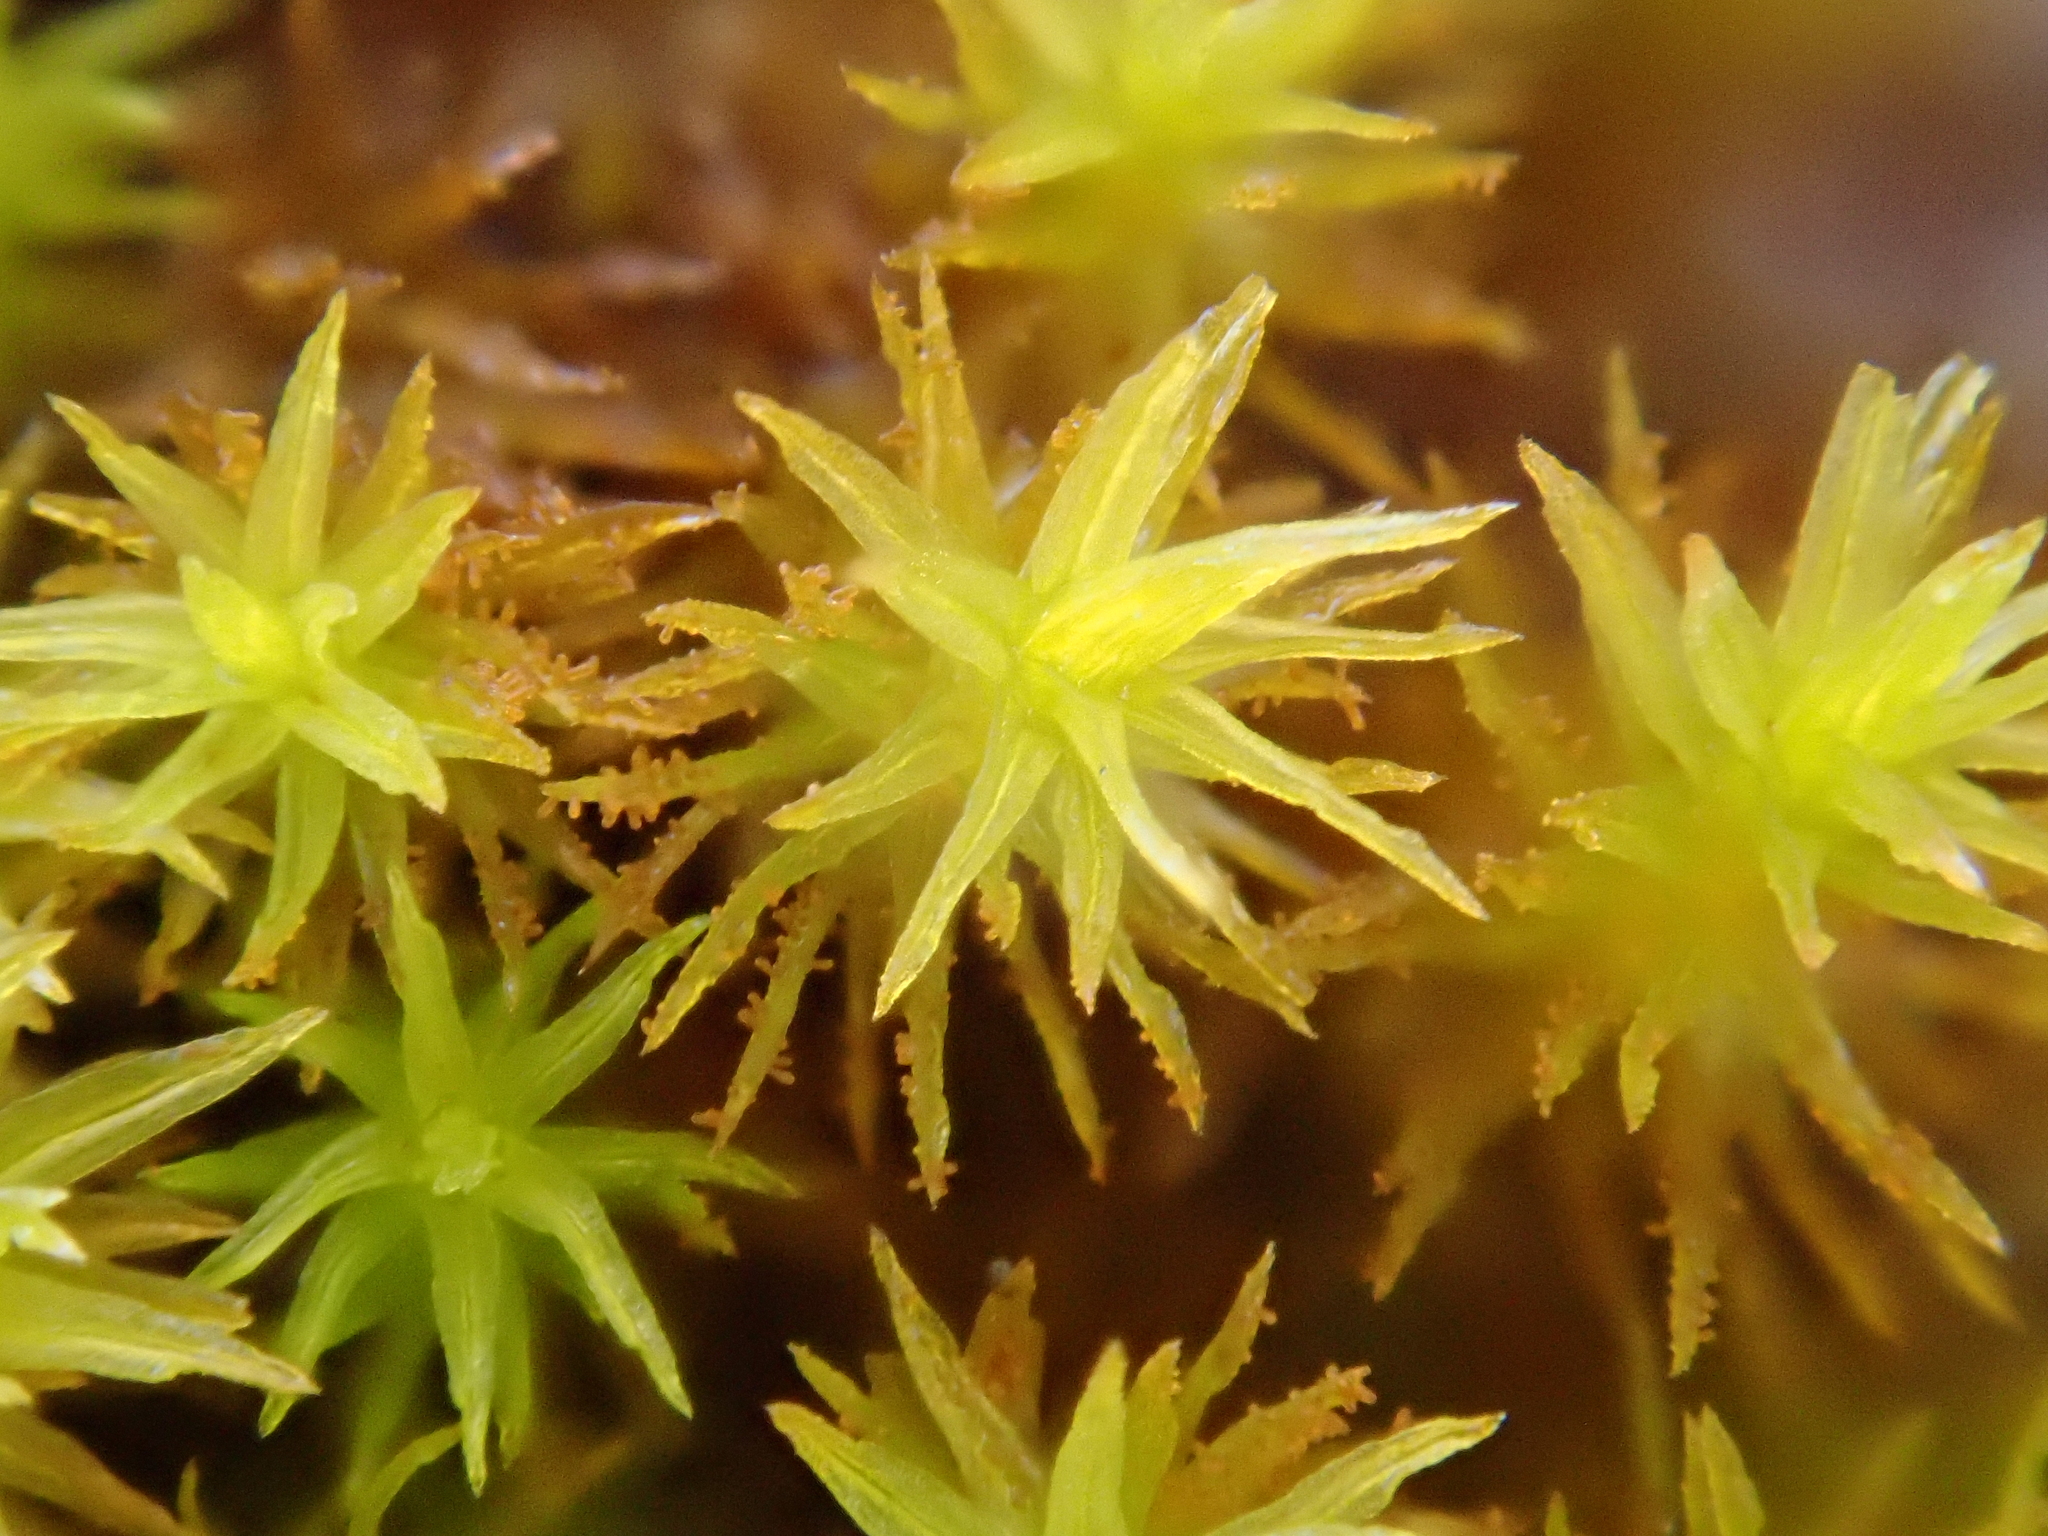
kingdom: Plantae
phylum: Bryophyta
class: Bryopsida
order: Orthotrichales
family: Orthotrichaceae
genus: Pulvigera
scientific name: Pulvigera lyellii
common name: Lyell's bristle-moss
